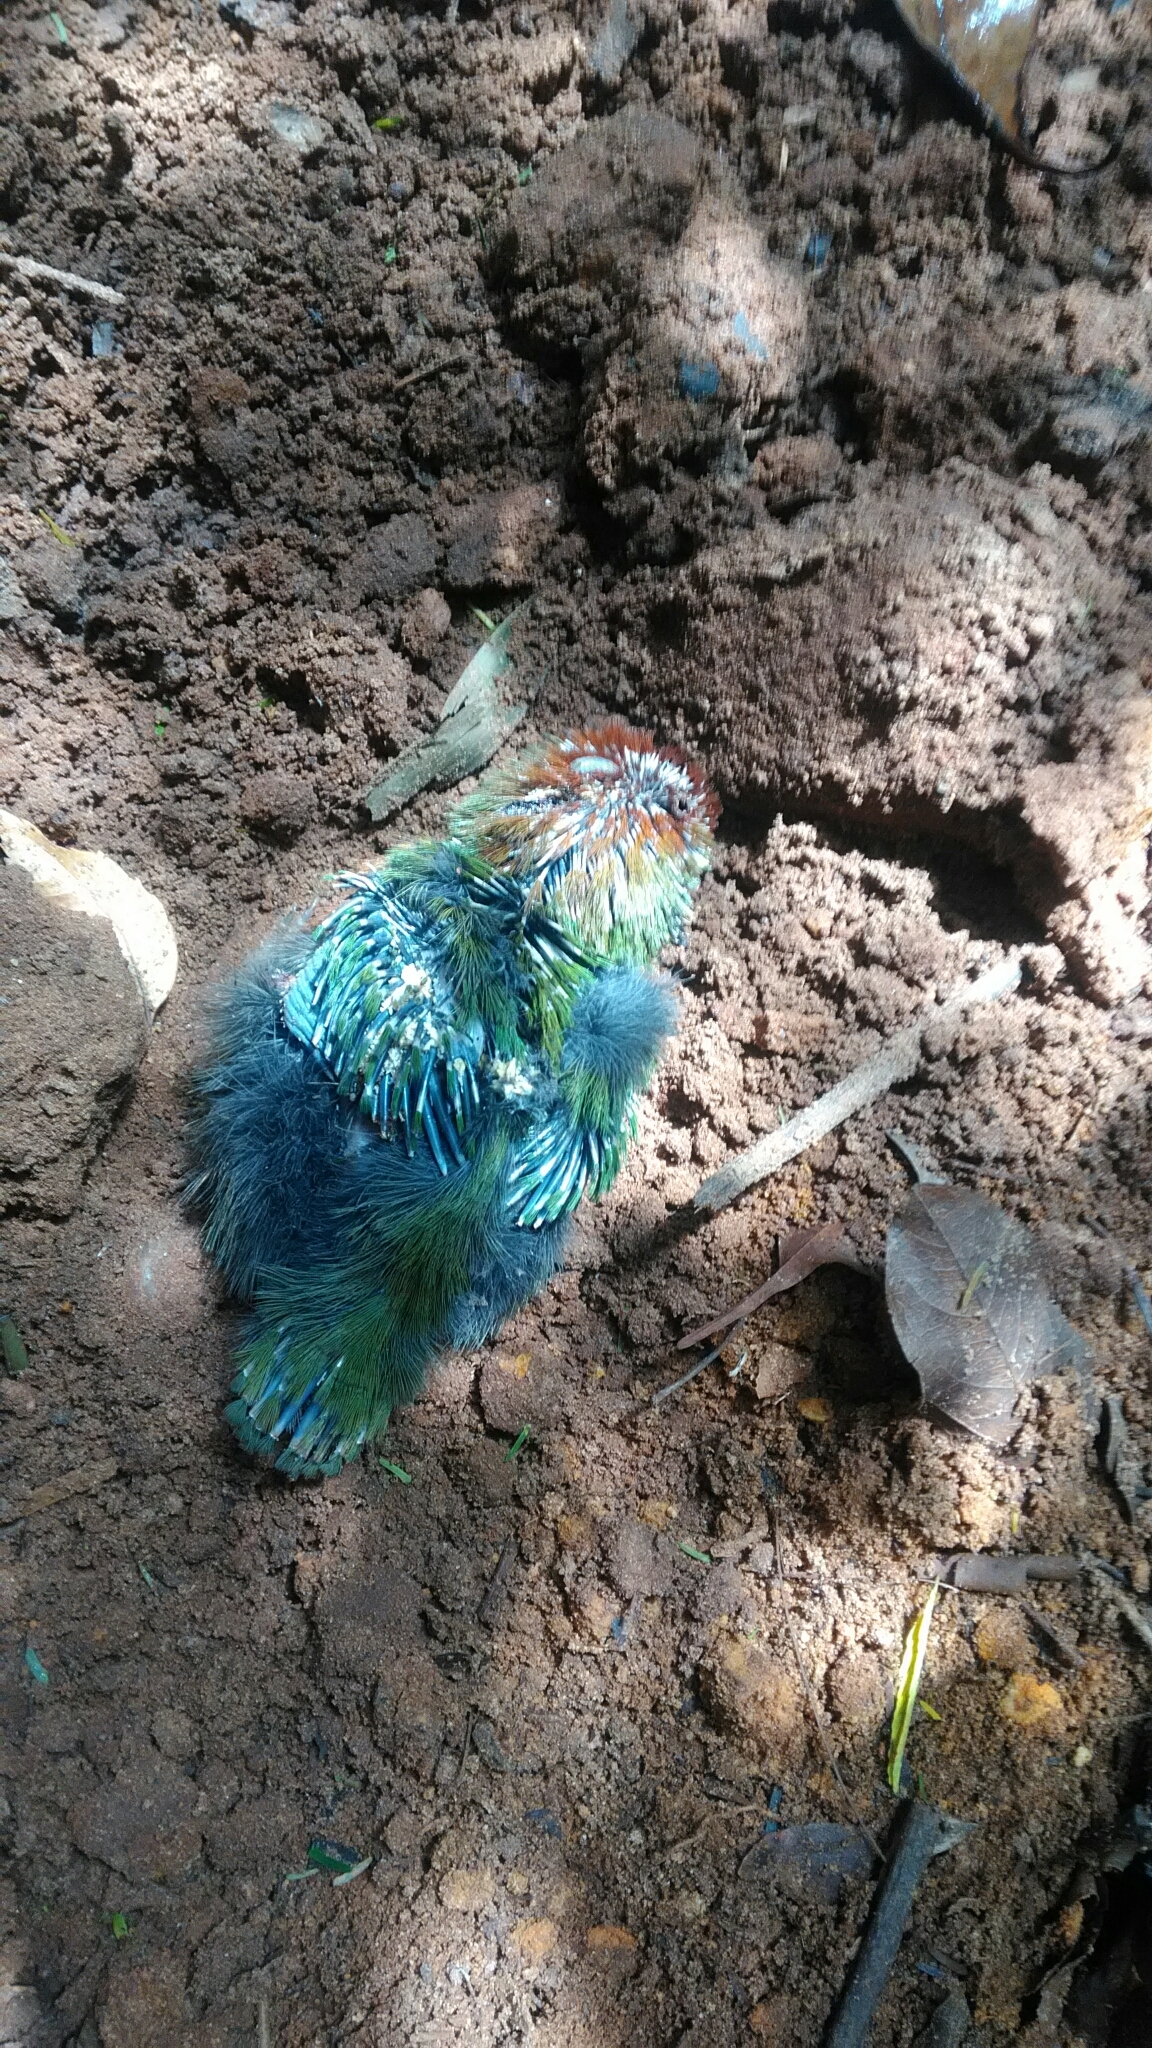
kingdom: Animalia
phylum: Chordata
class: Aves
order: Coraciiformes
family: Momotidae
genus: Baryphthengus
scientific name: Baryphthengus ruficapillus
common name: Rufous-capped motmot
